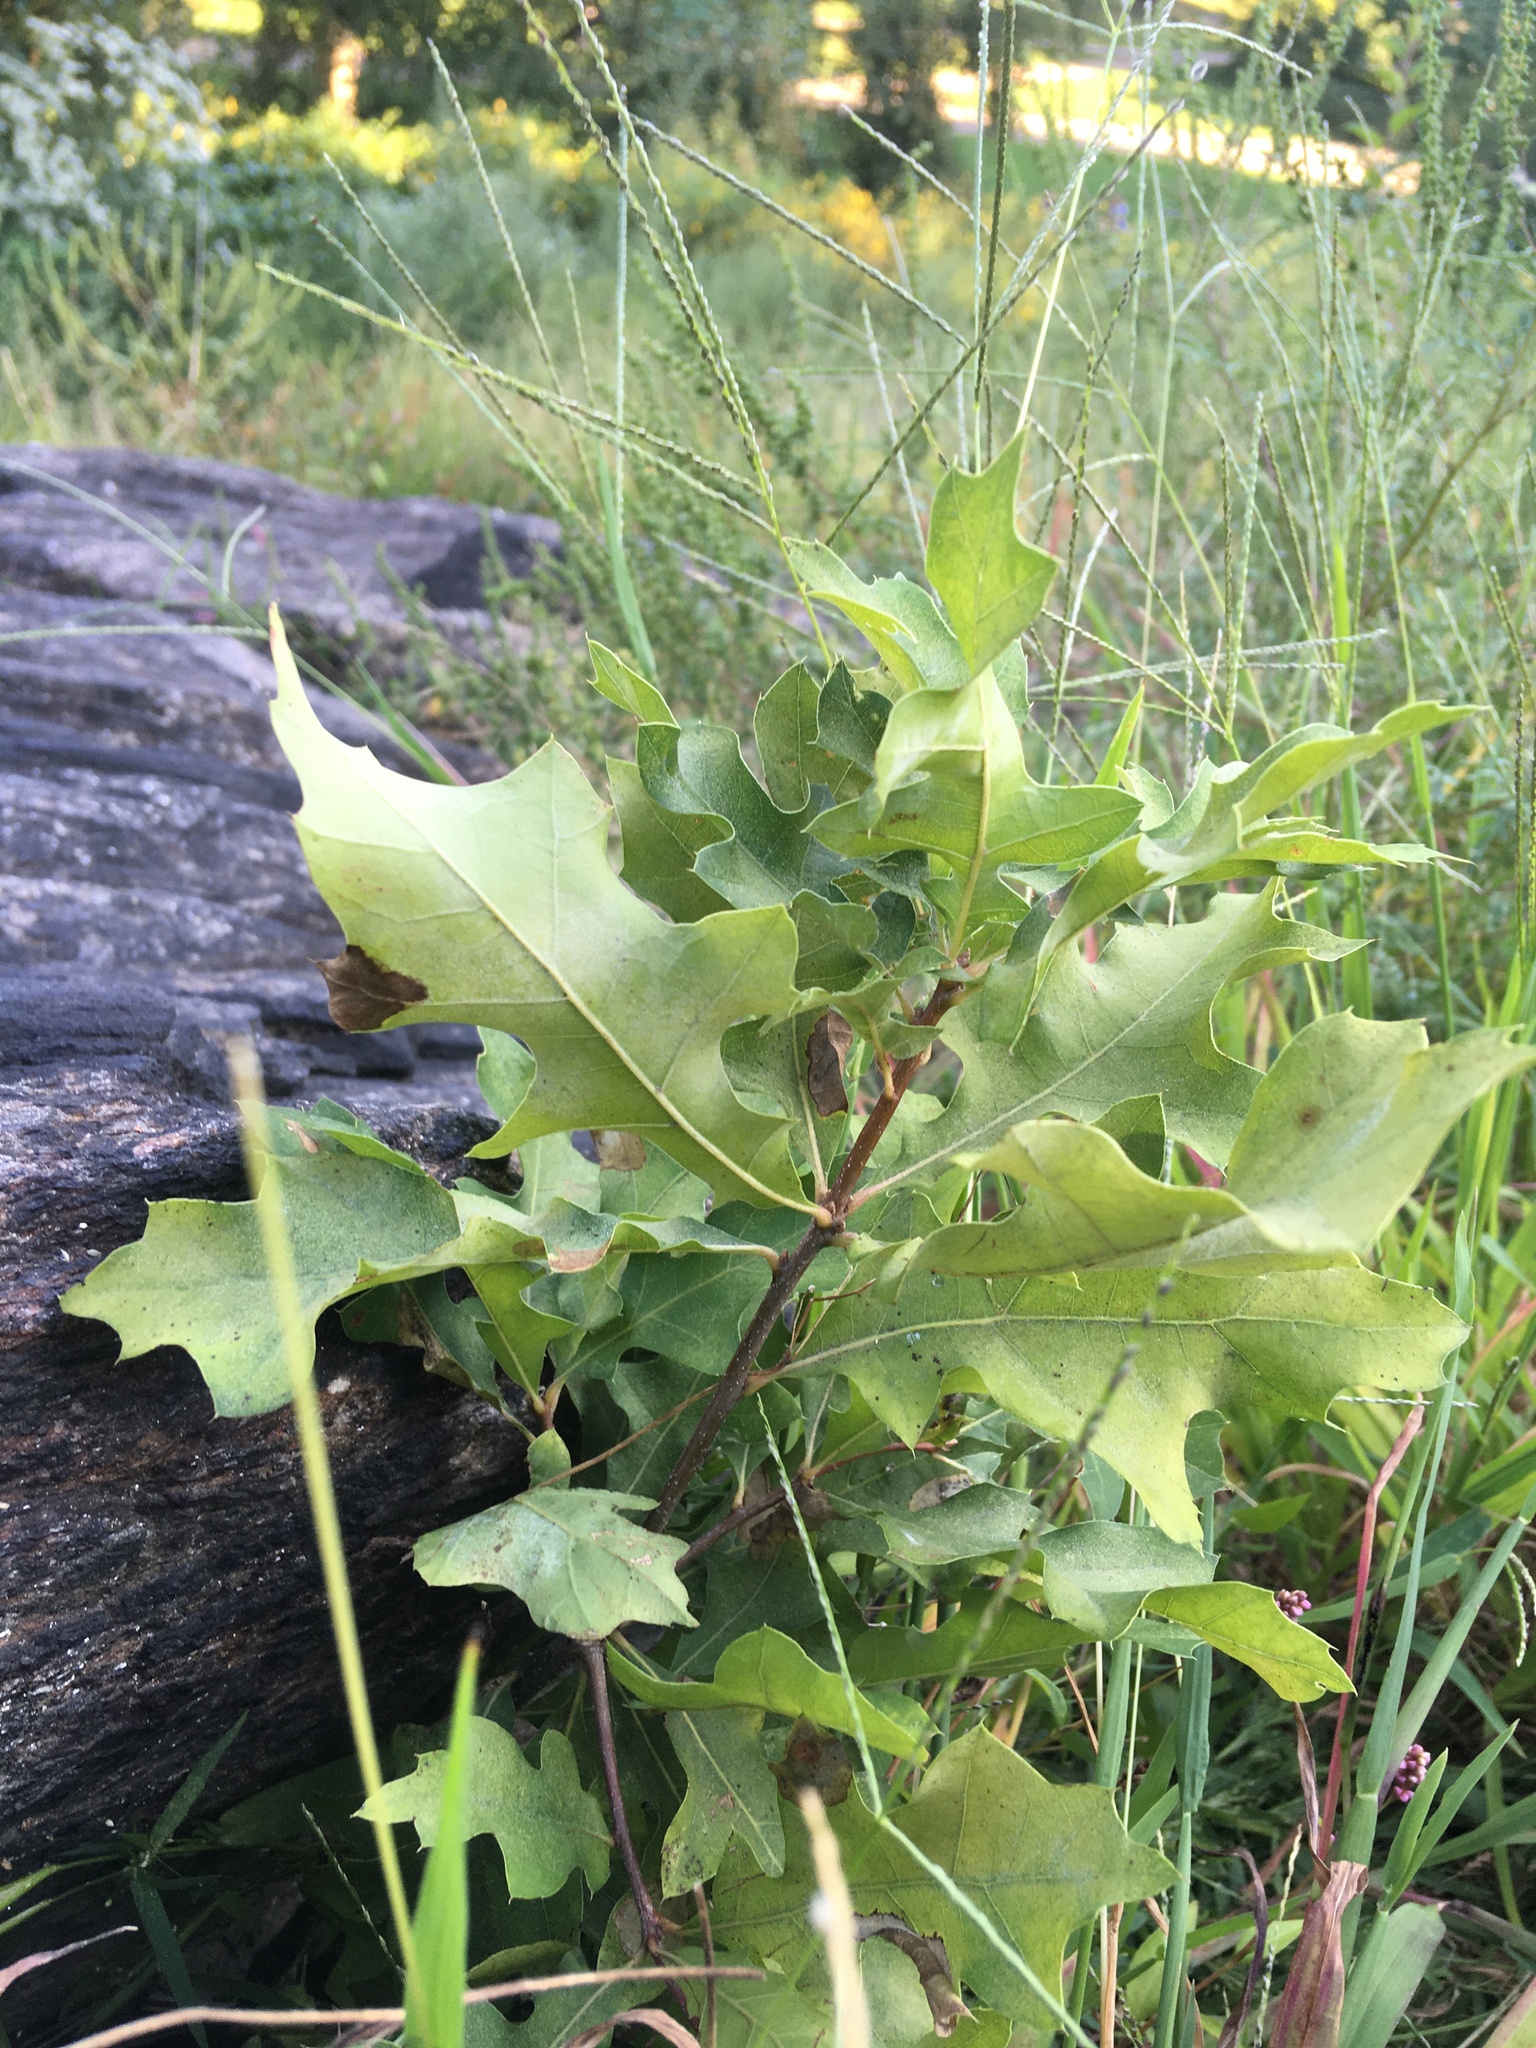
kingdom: Plantae
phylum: Tracheophyta
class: Magnoliopsida
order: Fagales
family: Fagaceae
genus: Quercus
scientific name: Quercus palustris
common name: Pin oak
